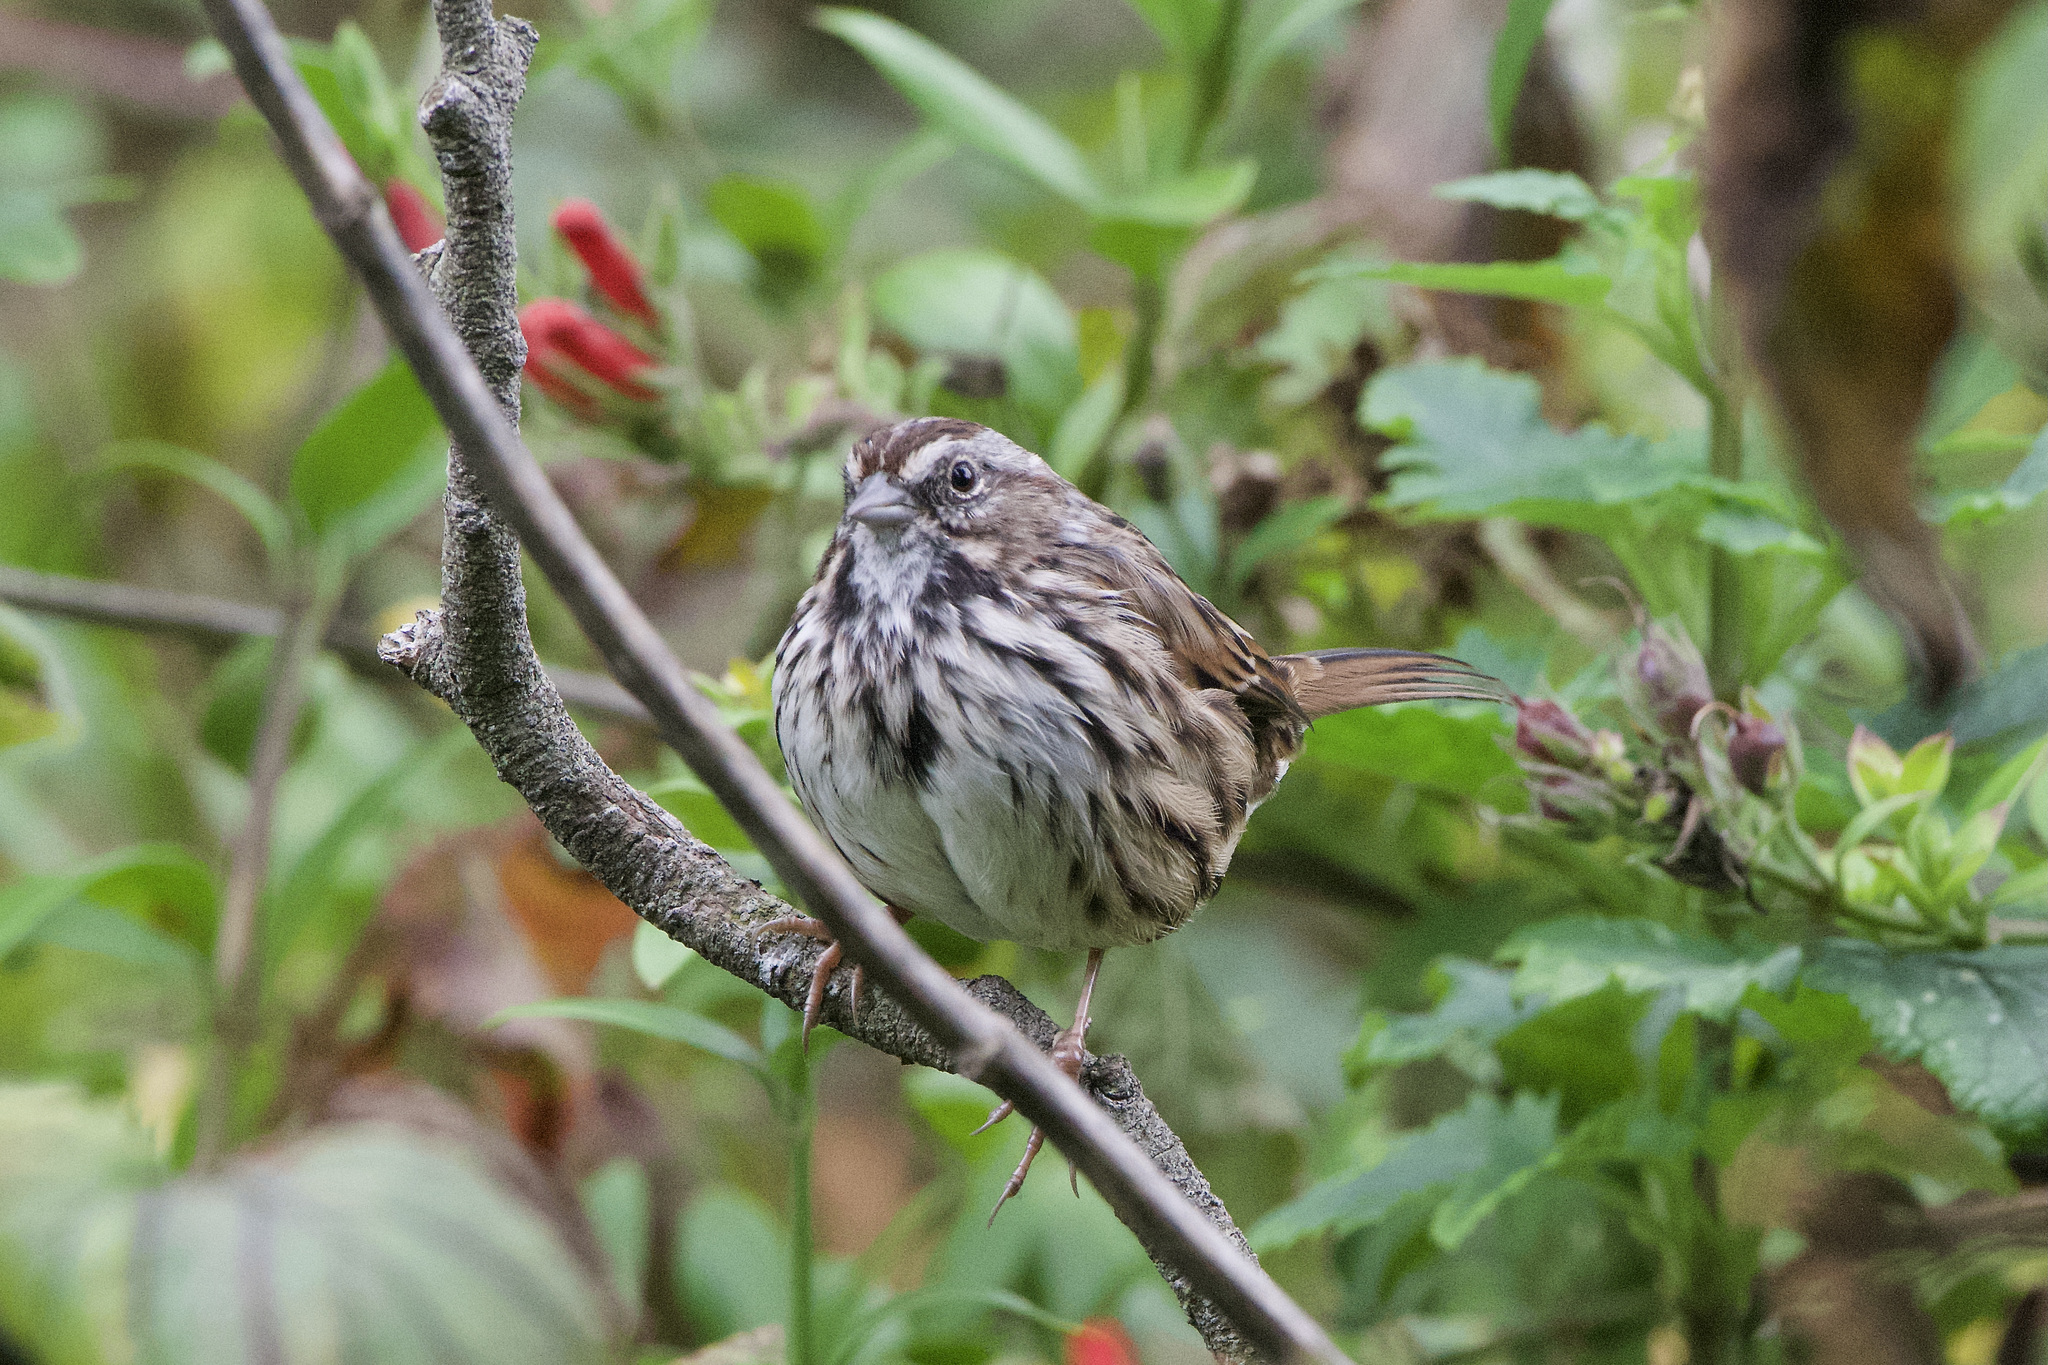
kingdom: Animalia
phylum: Chordata
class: Aves
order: Passeriformes
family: Passerellidae
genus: Melospiza
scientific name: Melospiza melodia
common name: Song sparrow
